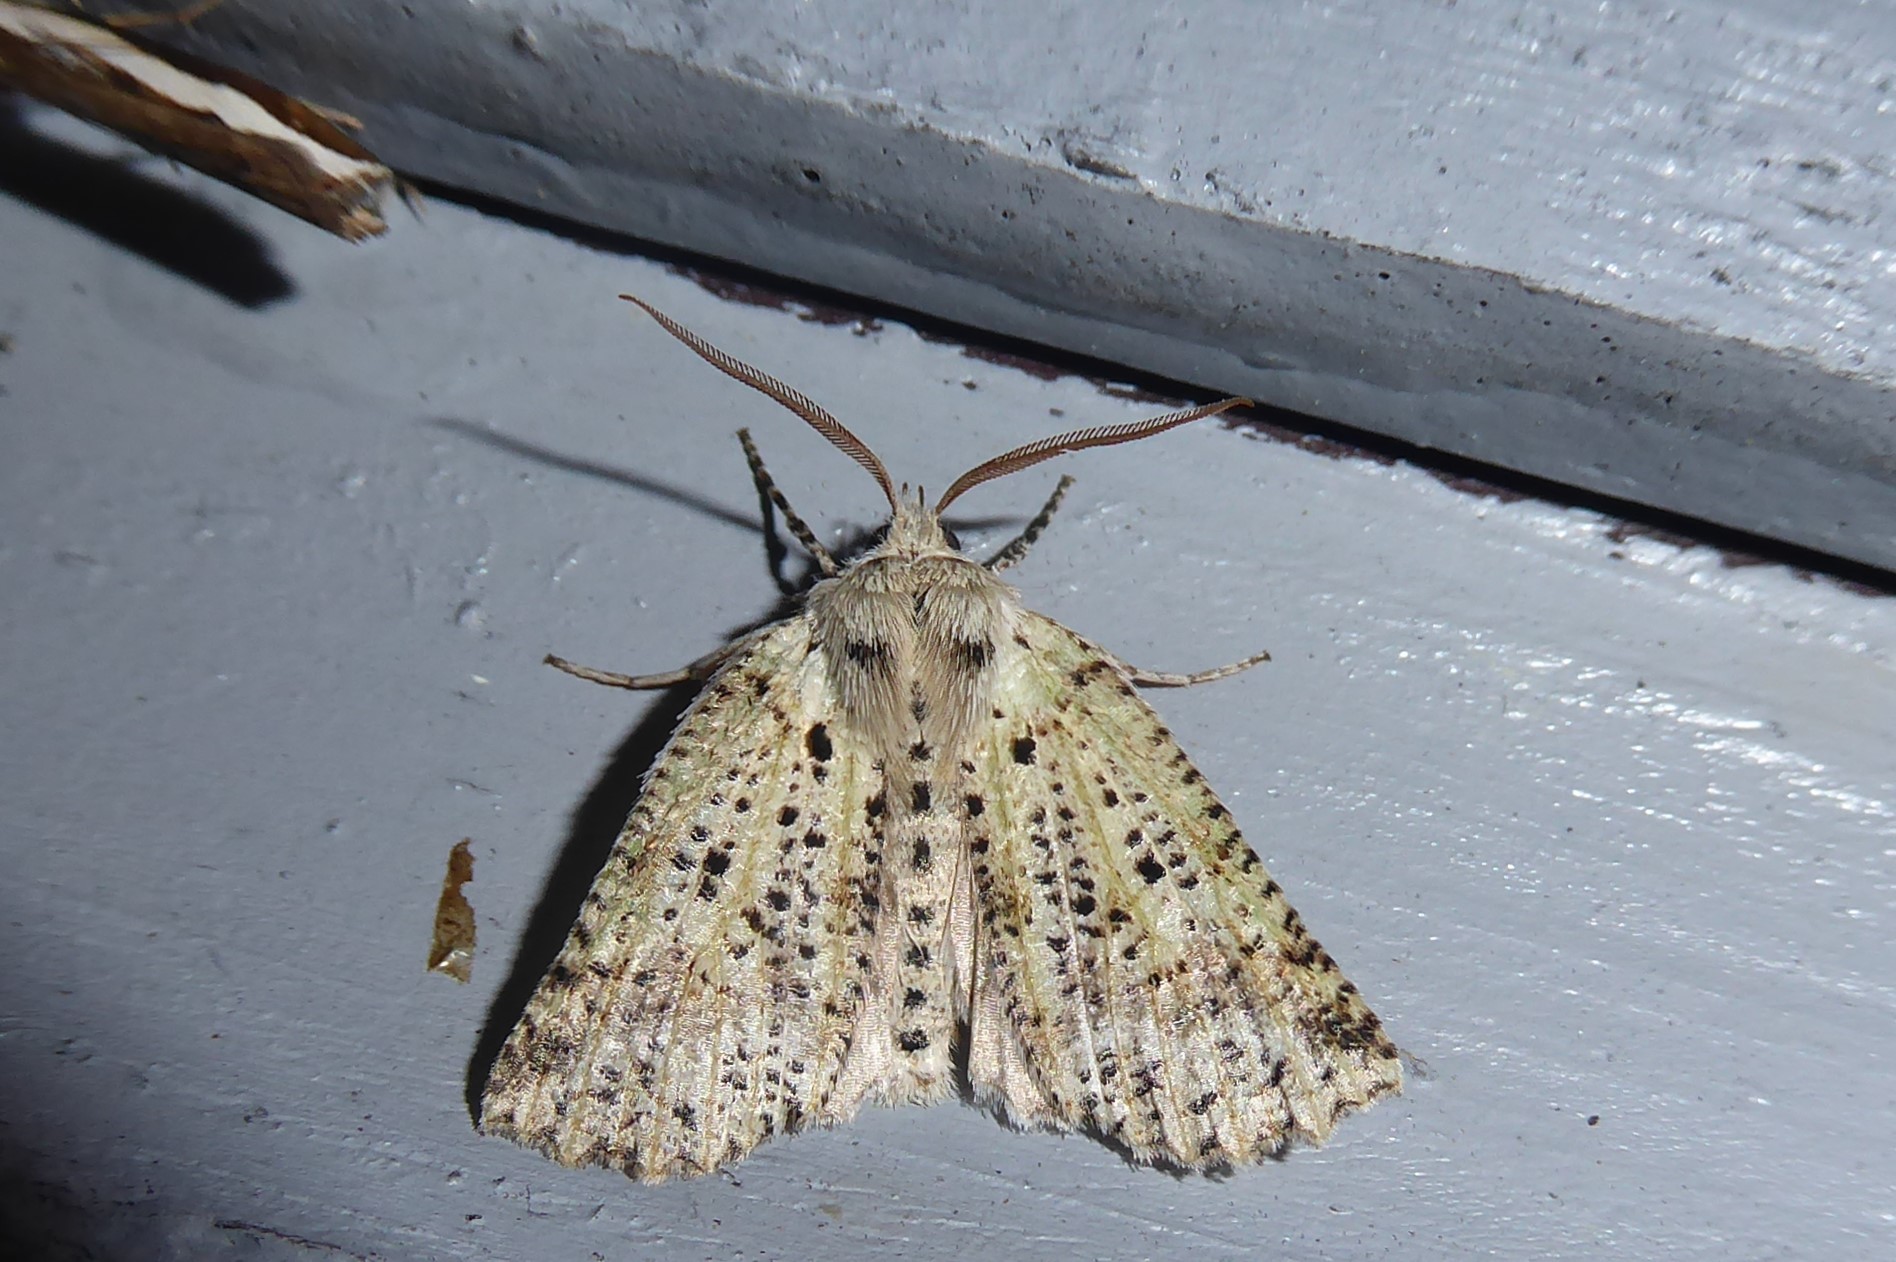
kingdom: Animalia
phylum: Arthropoda
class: Insecta
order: Lepidoptera
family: Geometridae
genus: Declana
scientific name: Declana floccosa
